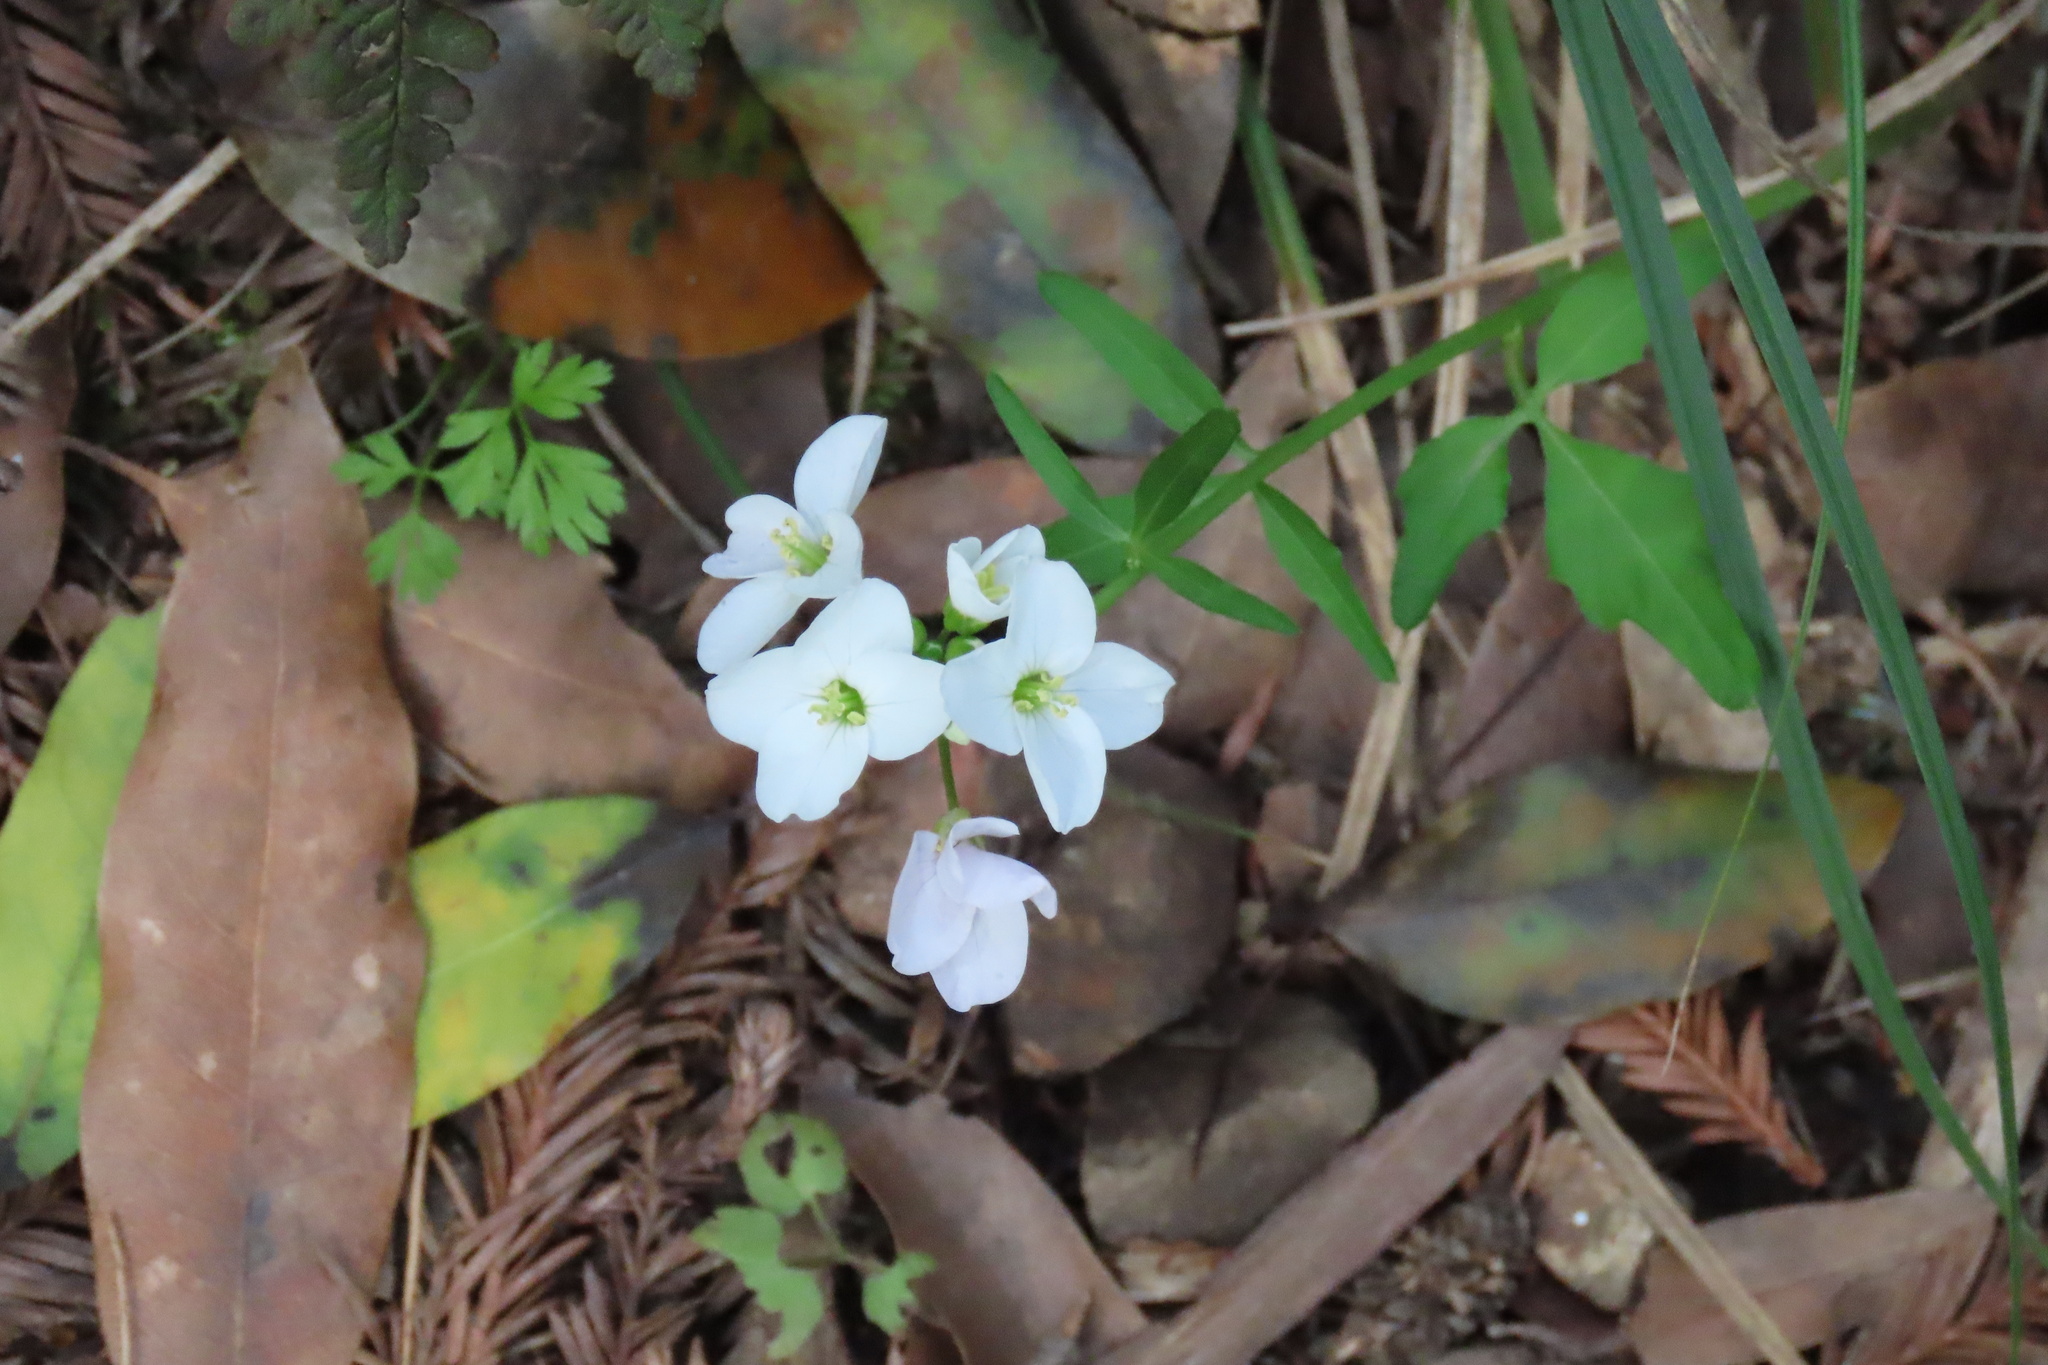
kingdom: Plantae
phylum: Tracheophyta
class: Magnoliopsida
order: Brassicales
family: Brassicaceae
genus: Cardamine
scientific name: Cardamine californica
